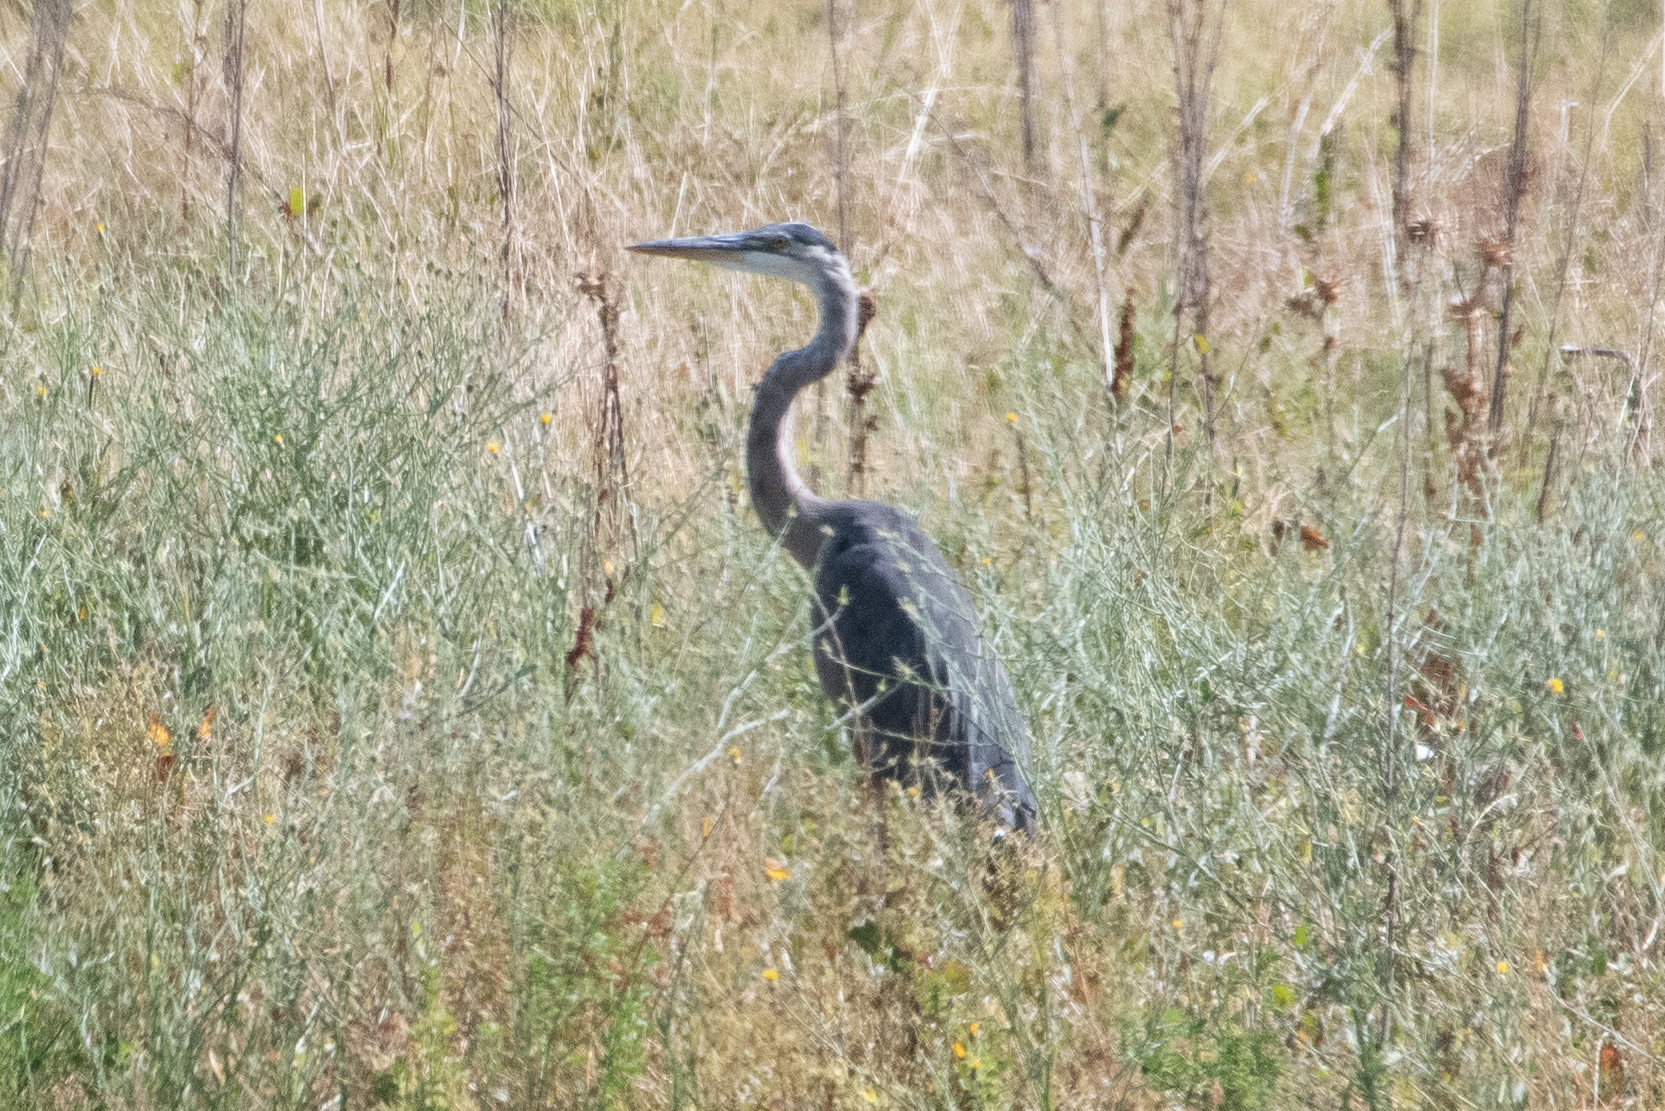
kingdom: Animalia
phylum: Chordata
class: Aves
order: Pelecaniformes
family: Ardeidae
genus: Ardea
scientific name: Ardea herodias
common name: Great blue heron
